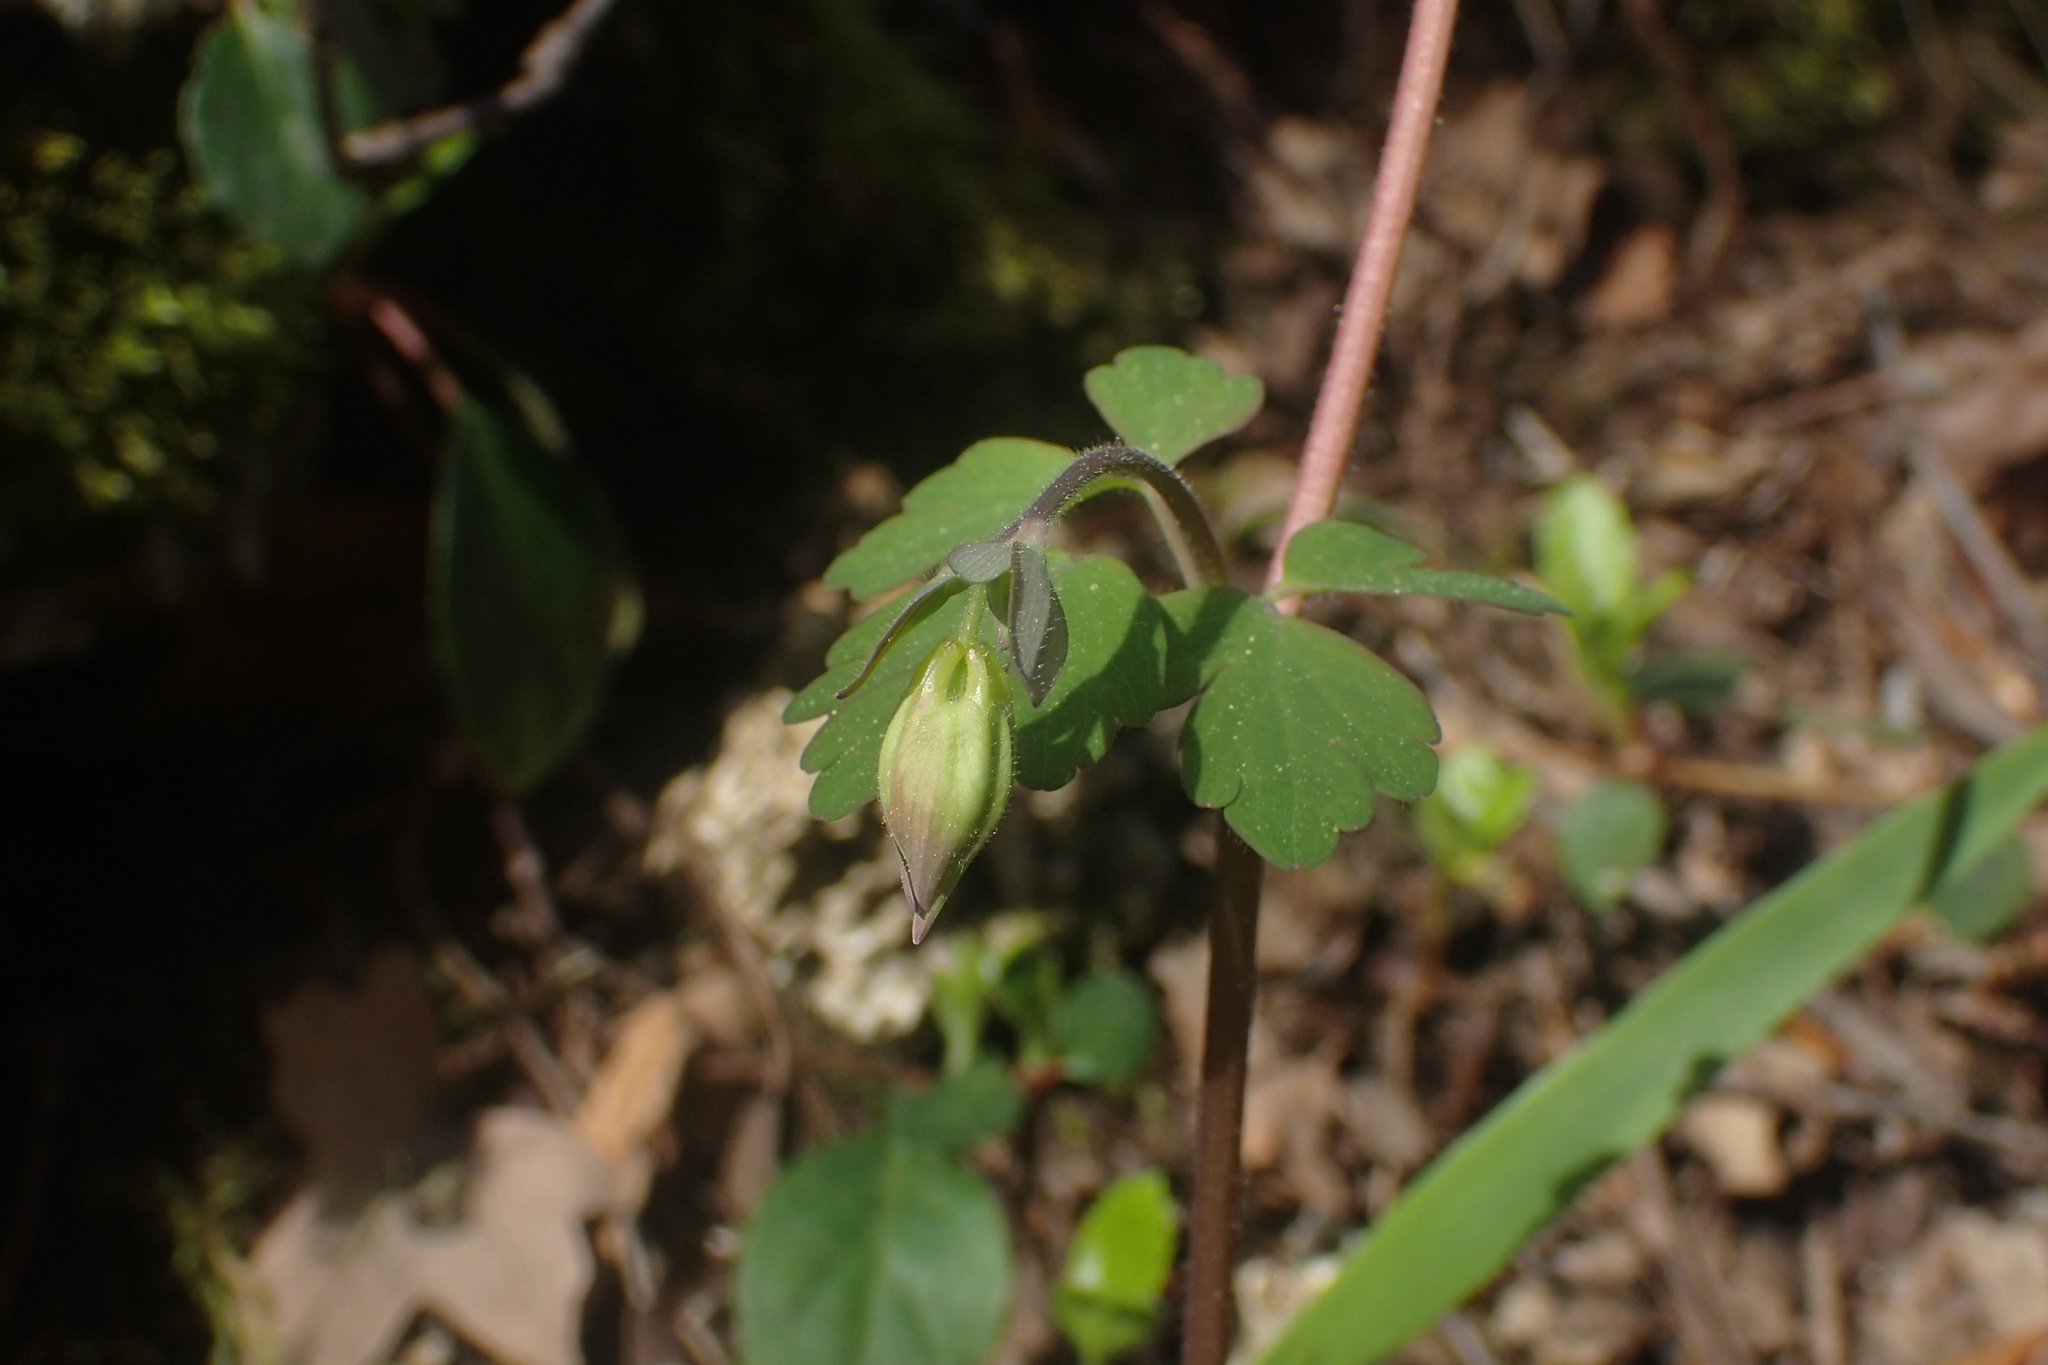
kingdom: Plantae
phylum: Tracheophyta
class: Magnoliopsida
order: Ranunculales
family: Ranunculaceae
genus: Aquilegia
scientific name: Aquilegia canadensis
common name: American columbine
